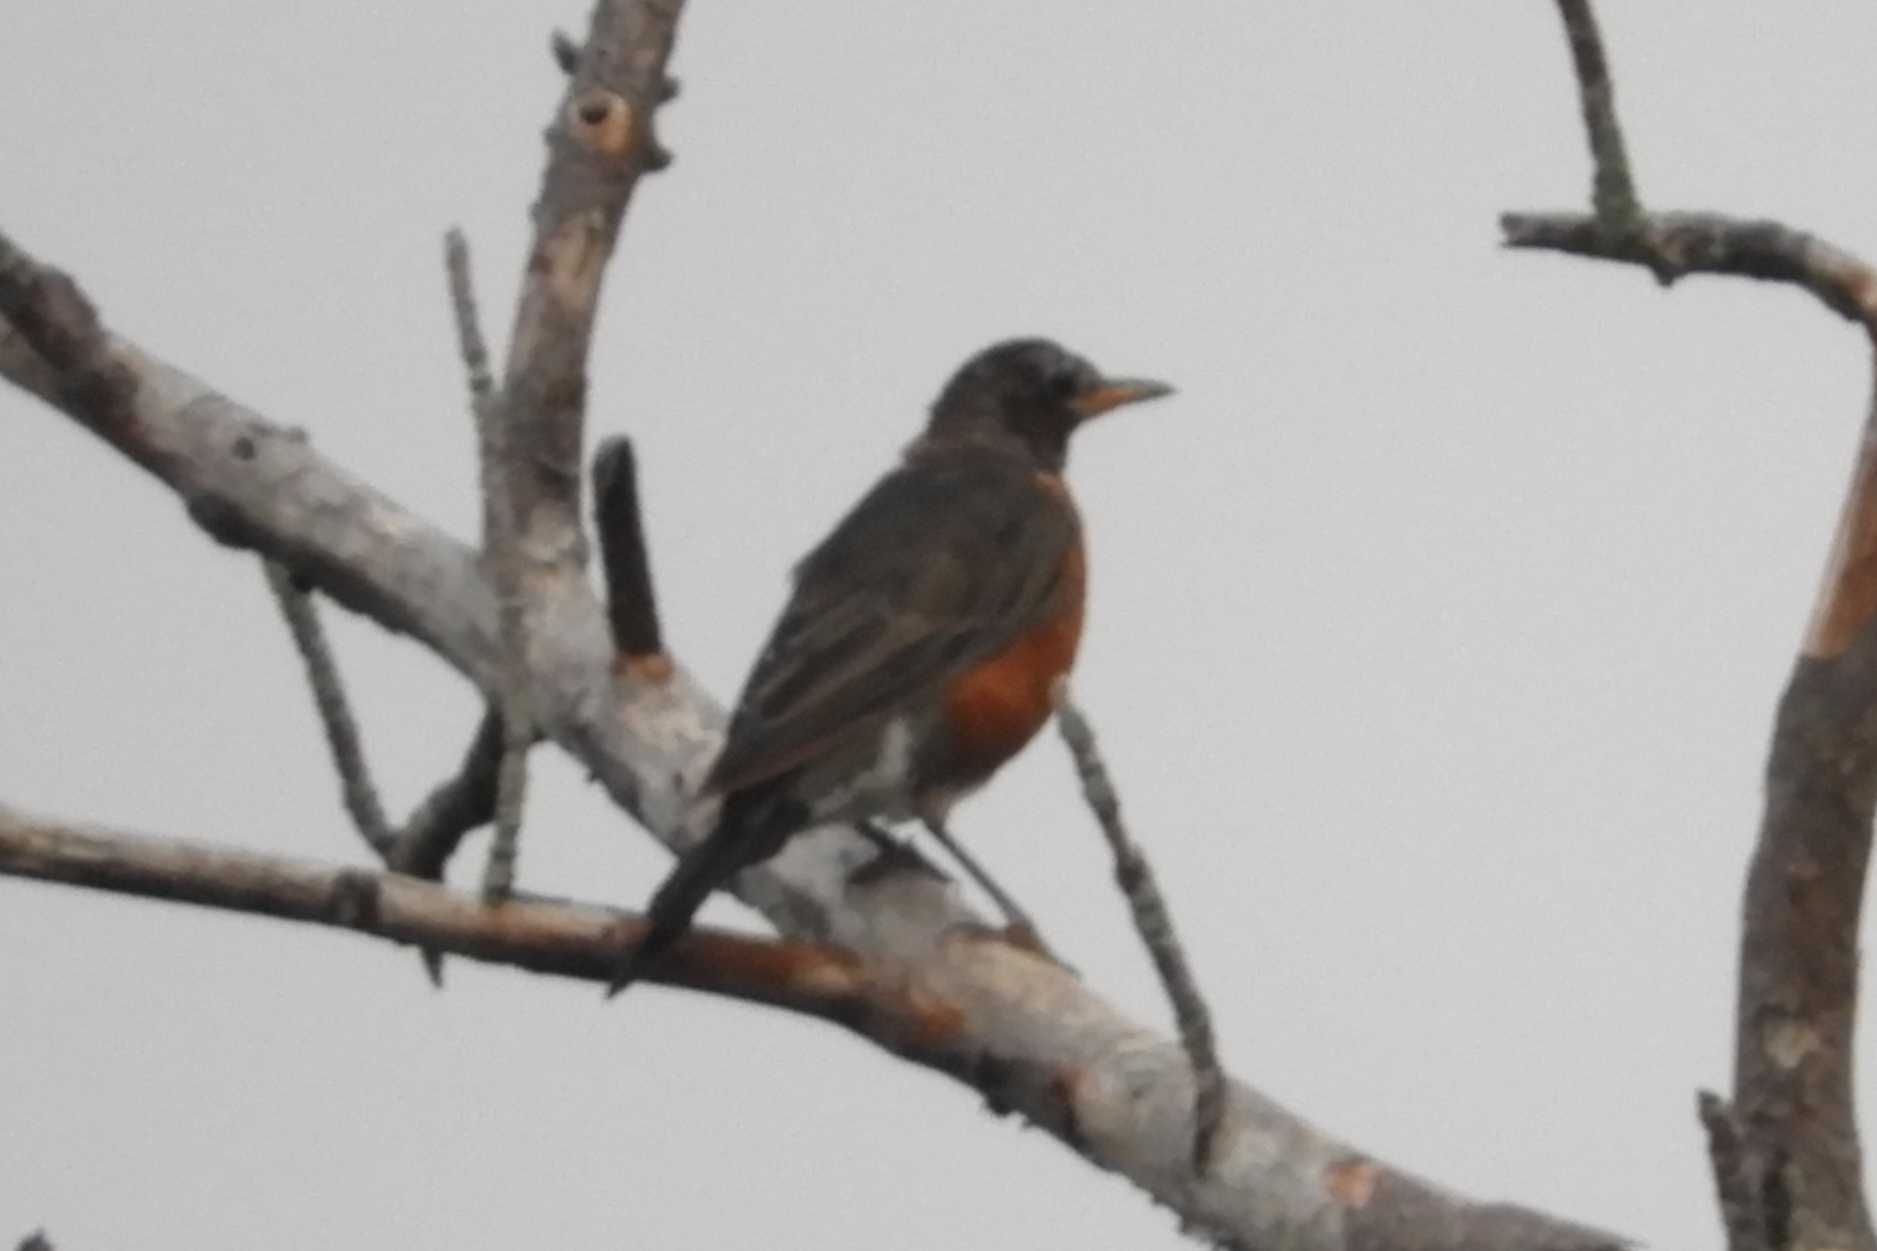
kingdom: Animalia
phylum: Chordata
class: Aves
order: Passeriformes
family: Turdidae
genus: Turdus
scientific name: Turdus migratorius
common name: American robin
